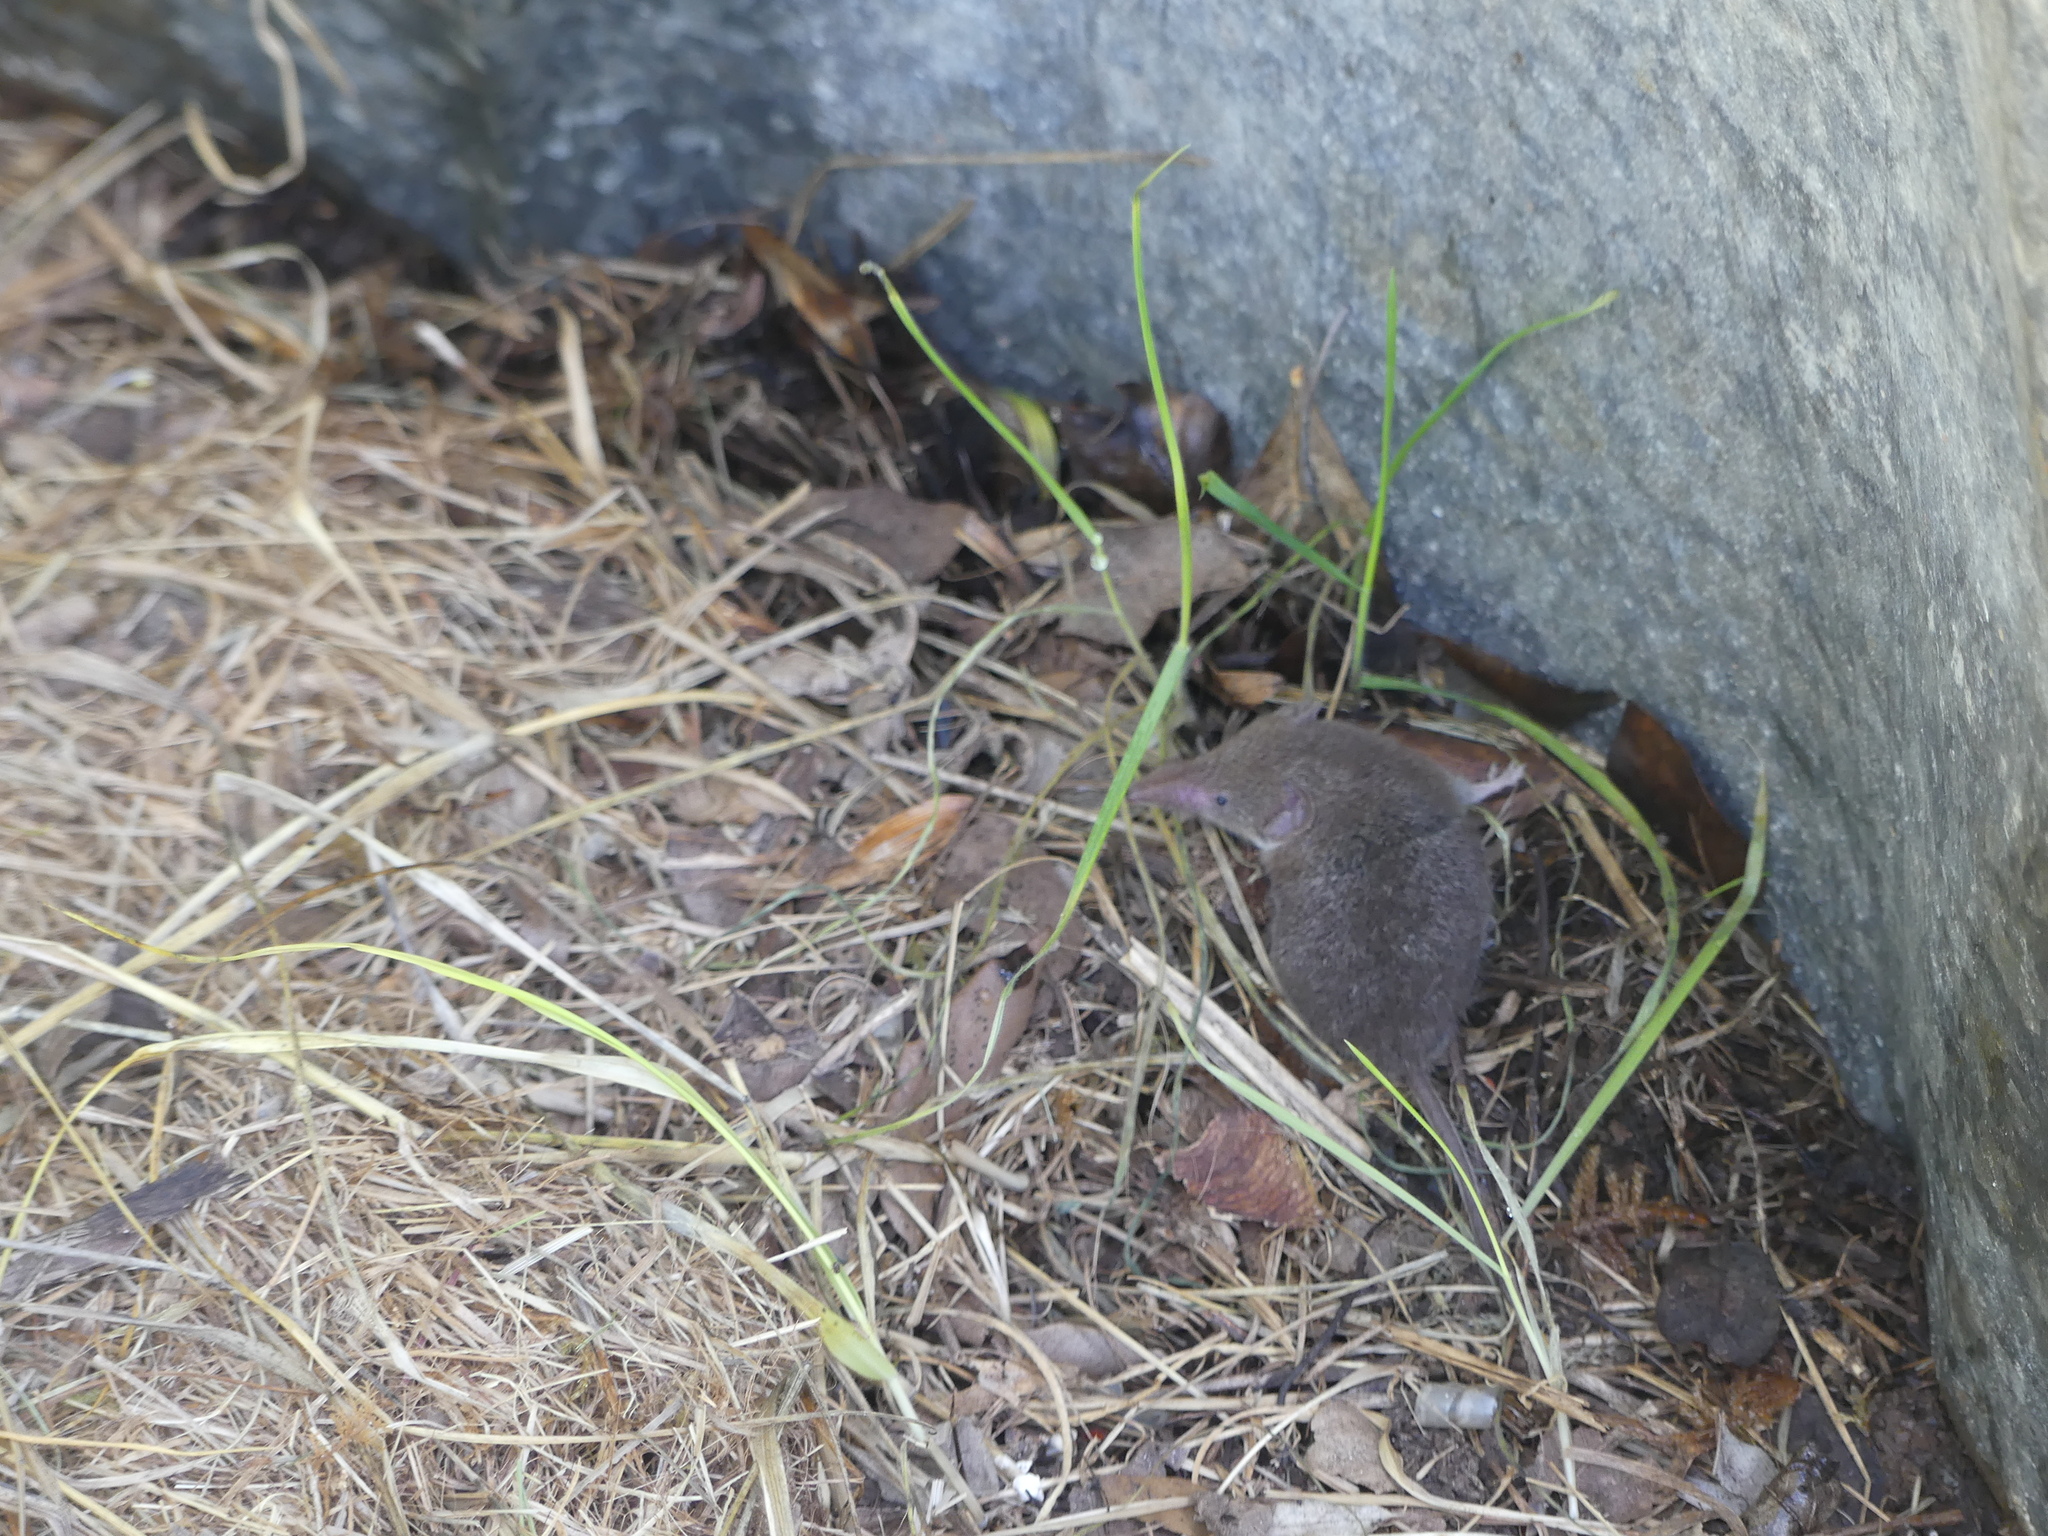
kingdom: Animalia
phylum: Chordata
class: Mammalia
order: Soricomorpha
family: Soricidae
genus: Crocidura
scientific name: Crocidura russula
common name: Greater white-toothed shrew
